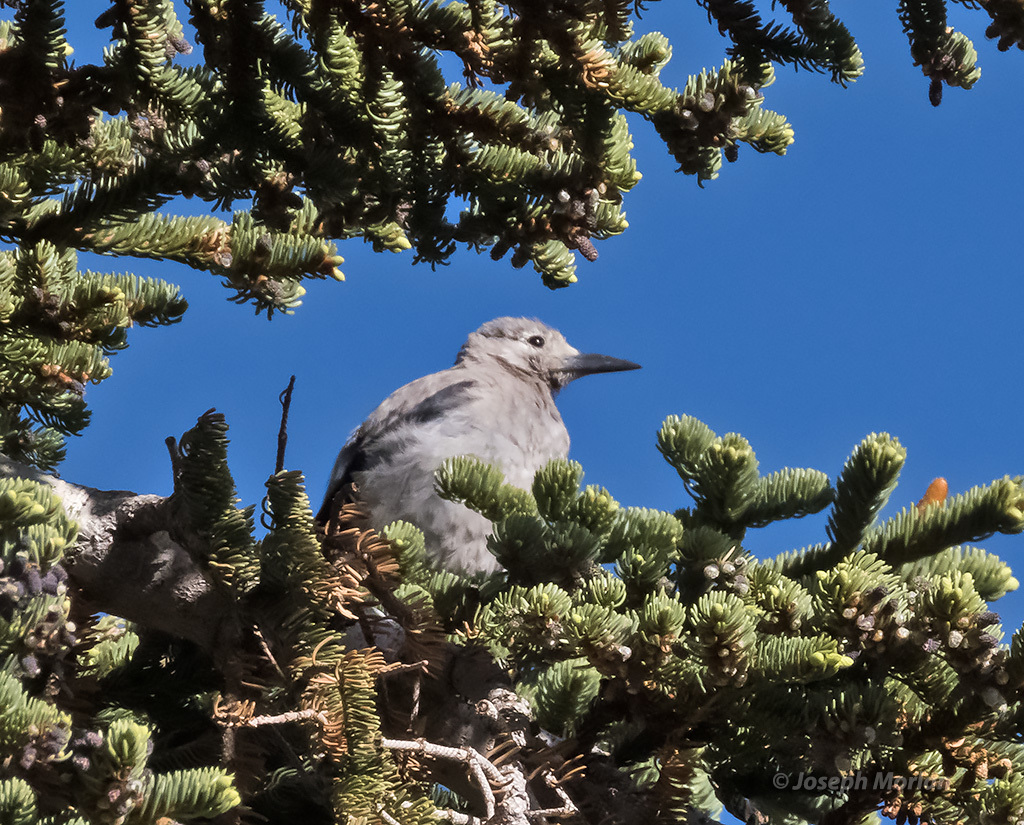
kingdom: Animalia
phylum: Chordata
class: Aves
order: Passeriformes
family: Corvidae
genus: Nucifraga
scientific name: Nucifraga columbiana
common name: Clark's nutcracker
